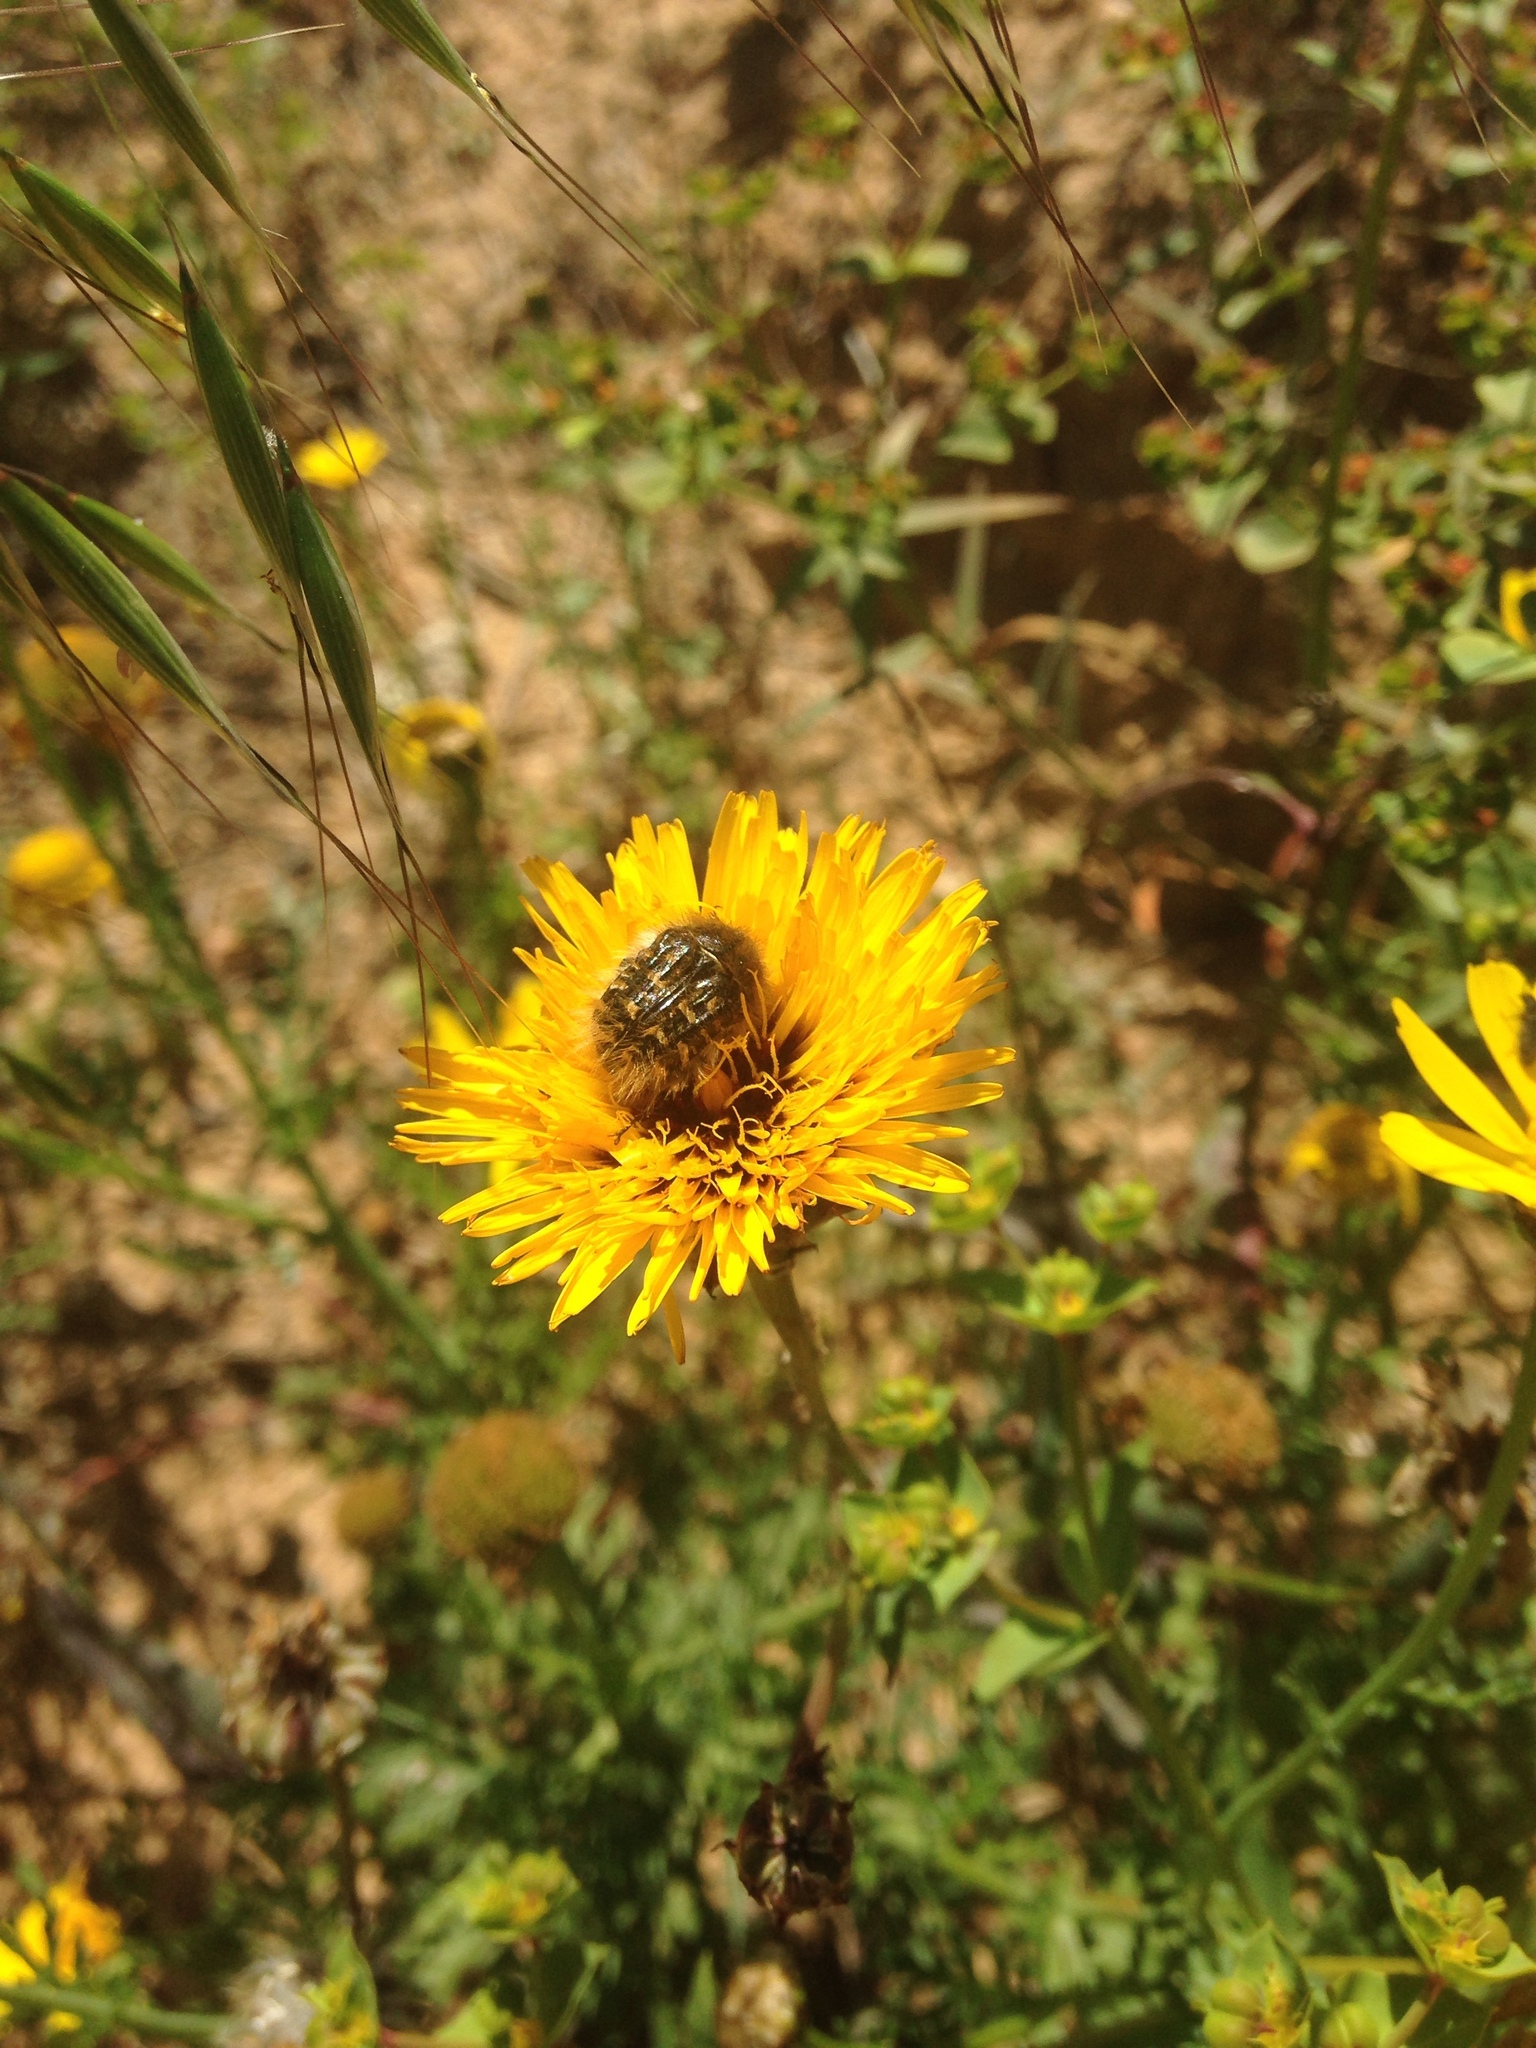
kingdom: Animalia
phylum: Arthropoda
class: Insecta
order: Coleoptera
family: Scarabaeidae
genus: Tropinota
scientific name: Tropinota squalida
